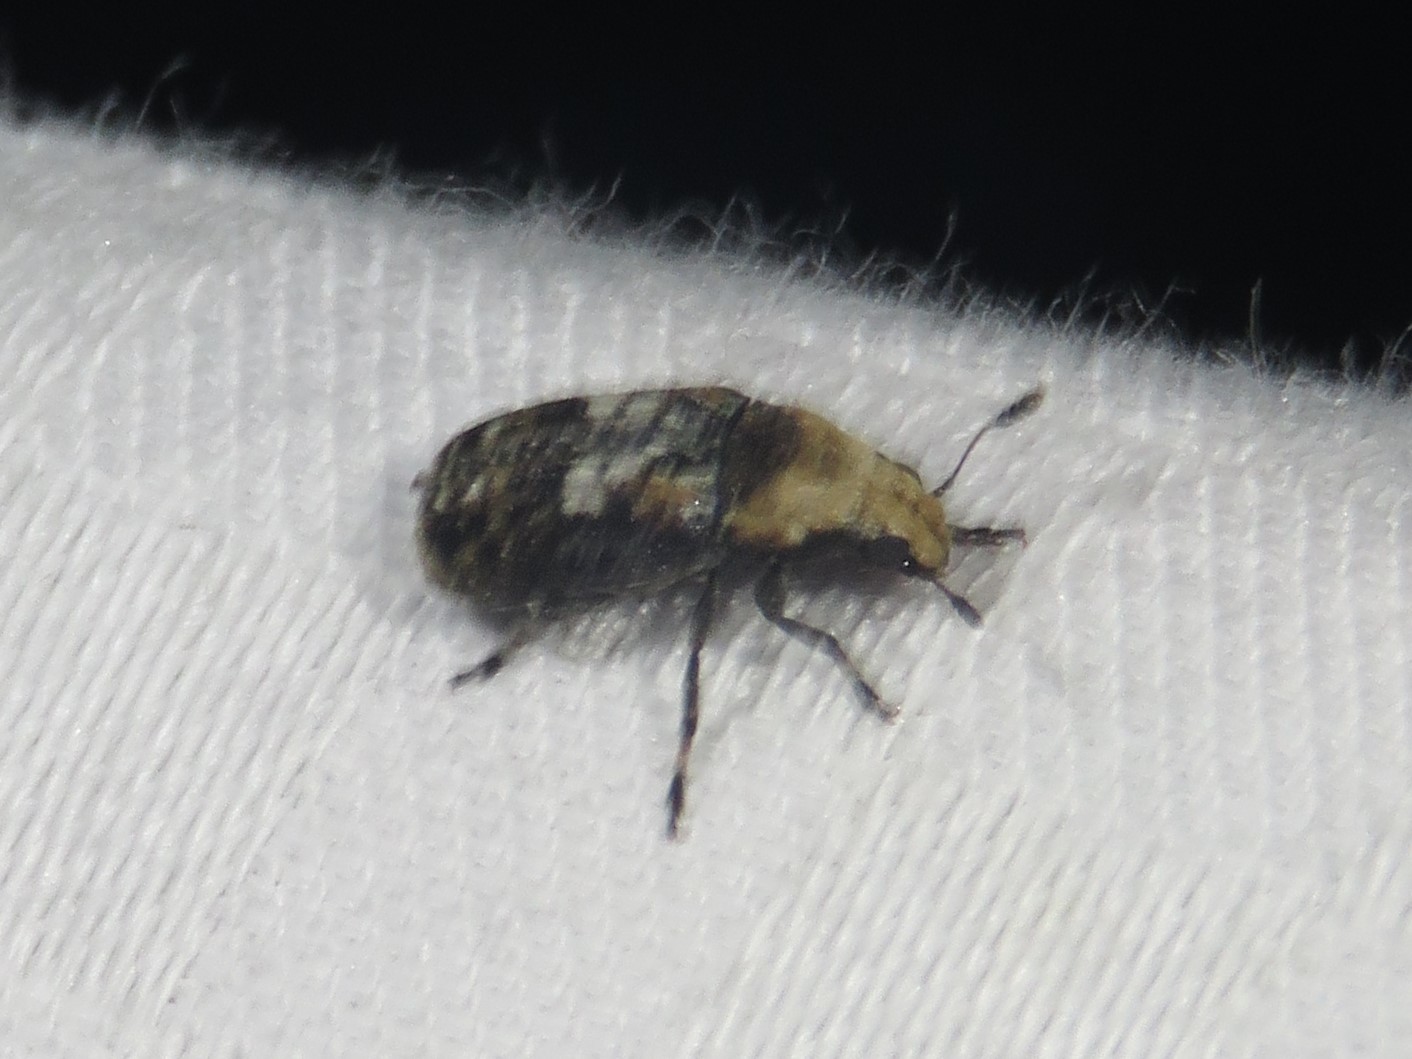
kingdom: Animalia
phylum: Arthropoda
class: Insecta
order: Coleoptera
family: Anthribidae
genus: Euparius
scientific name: Euparius paganus
